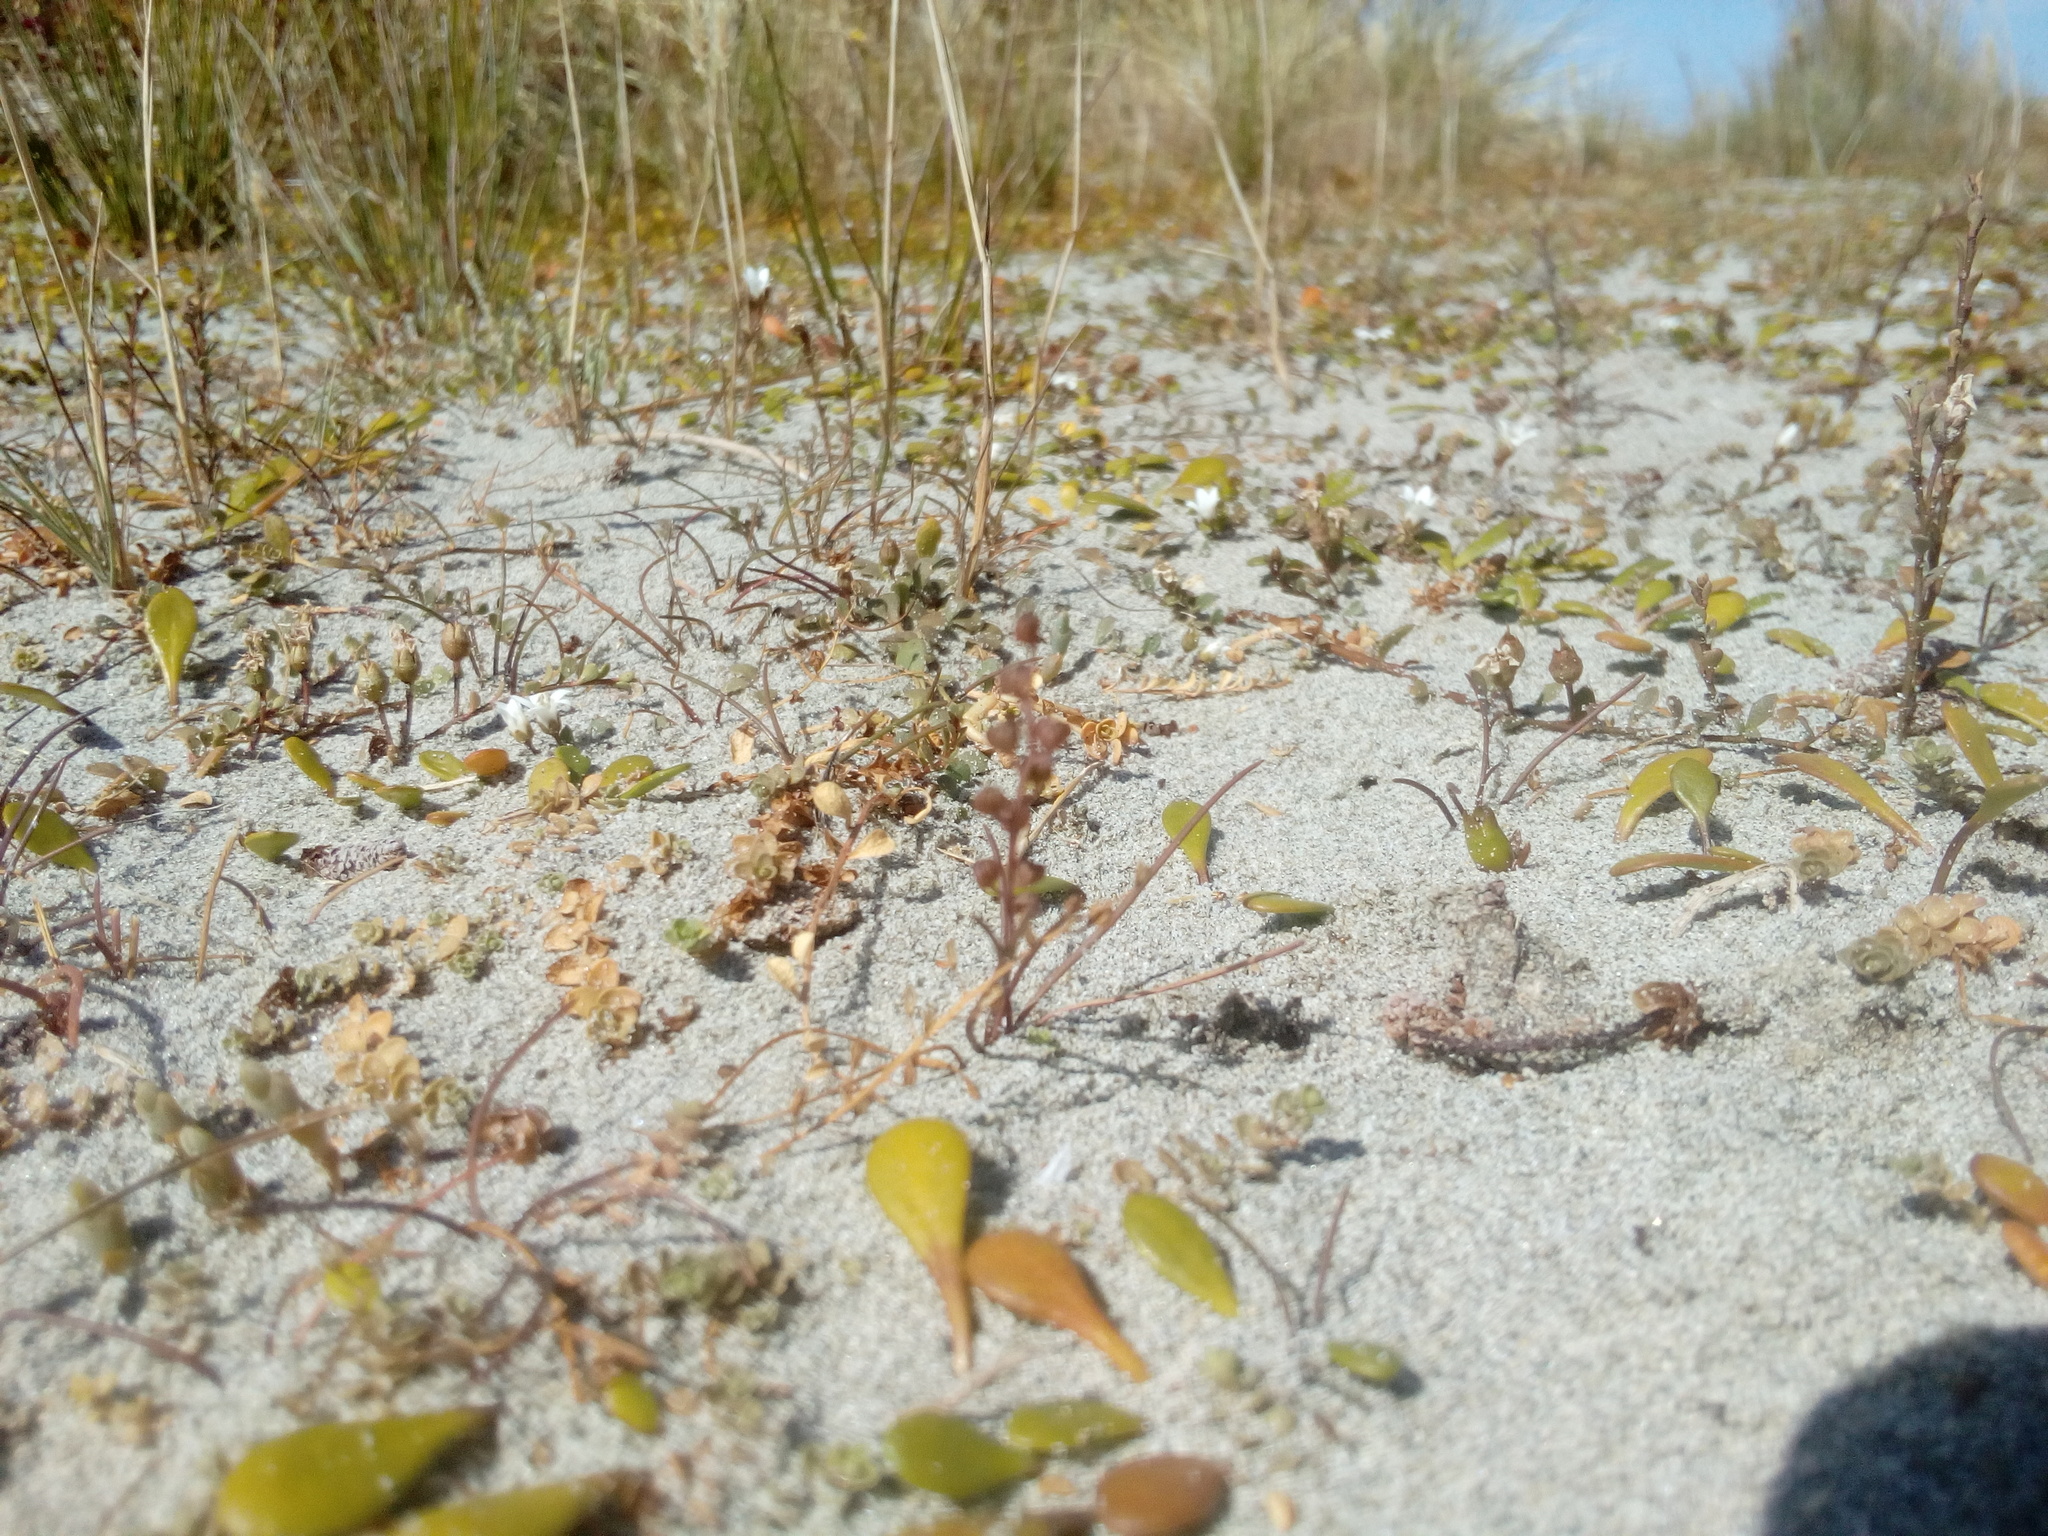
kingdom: Plantae
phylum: Tracheophyta
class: Liliopsida
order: Alismatales
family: Juncaginaceae
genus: Triglochin
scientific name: Triglochin striata
